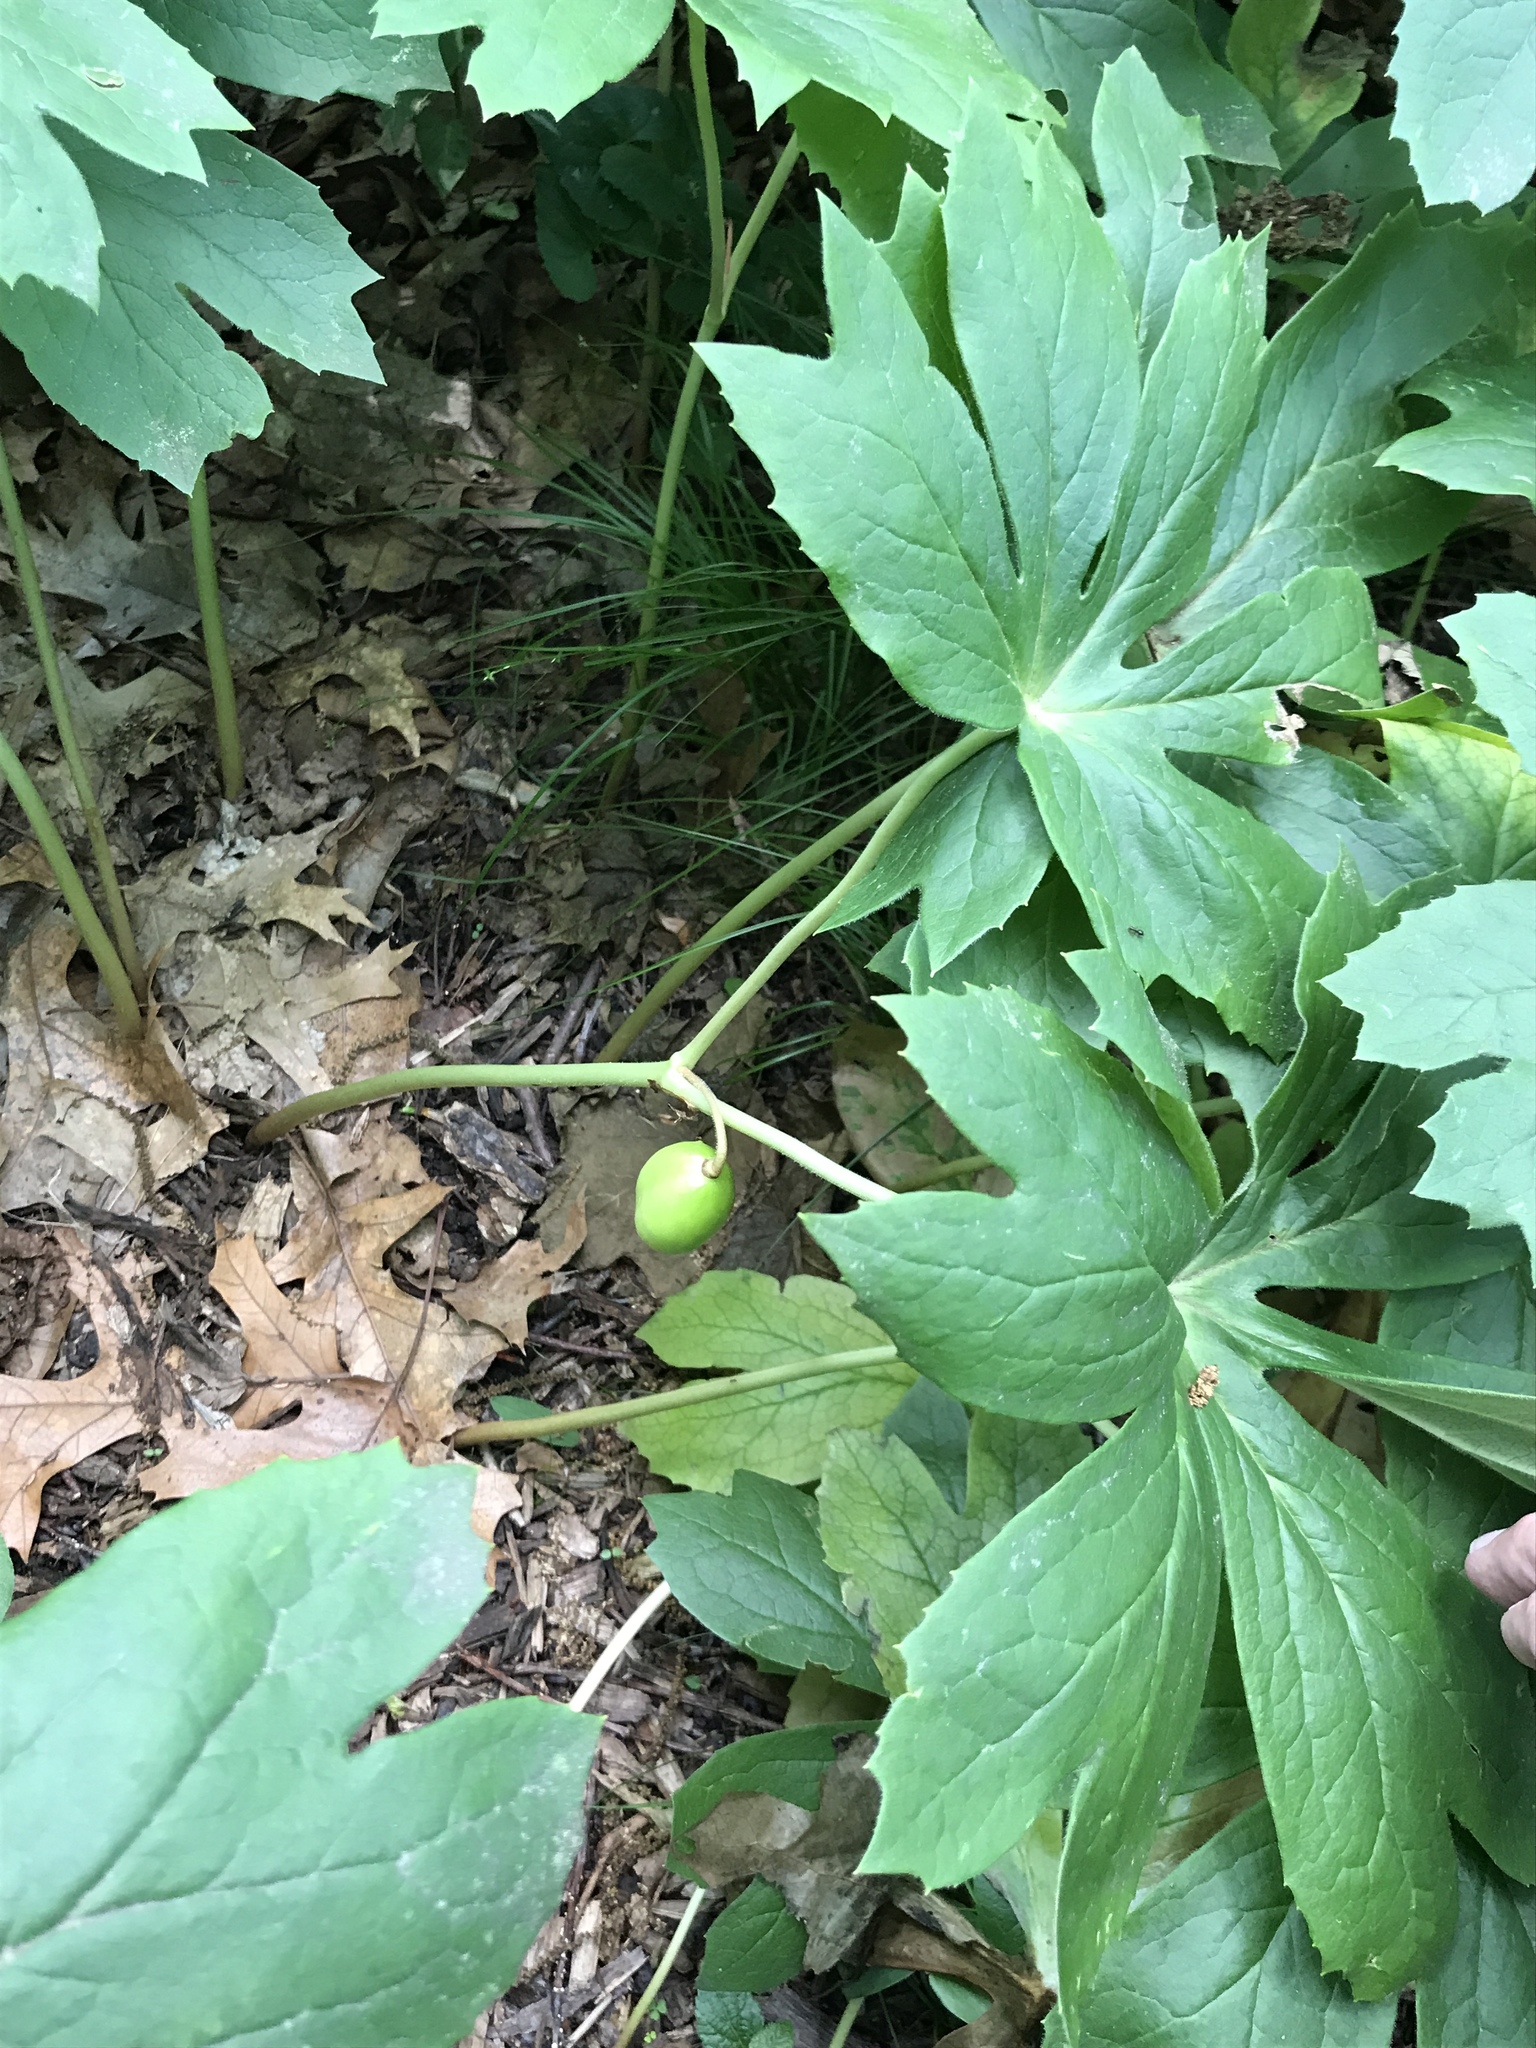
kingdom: Plantae
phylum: Tracheophyta
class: Magnoliopsida
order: Ranunculales
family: Berberidaceae
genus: Podophyllum
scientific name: Podophyllum peltatum
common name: Wild mandrake
